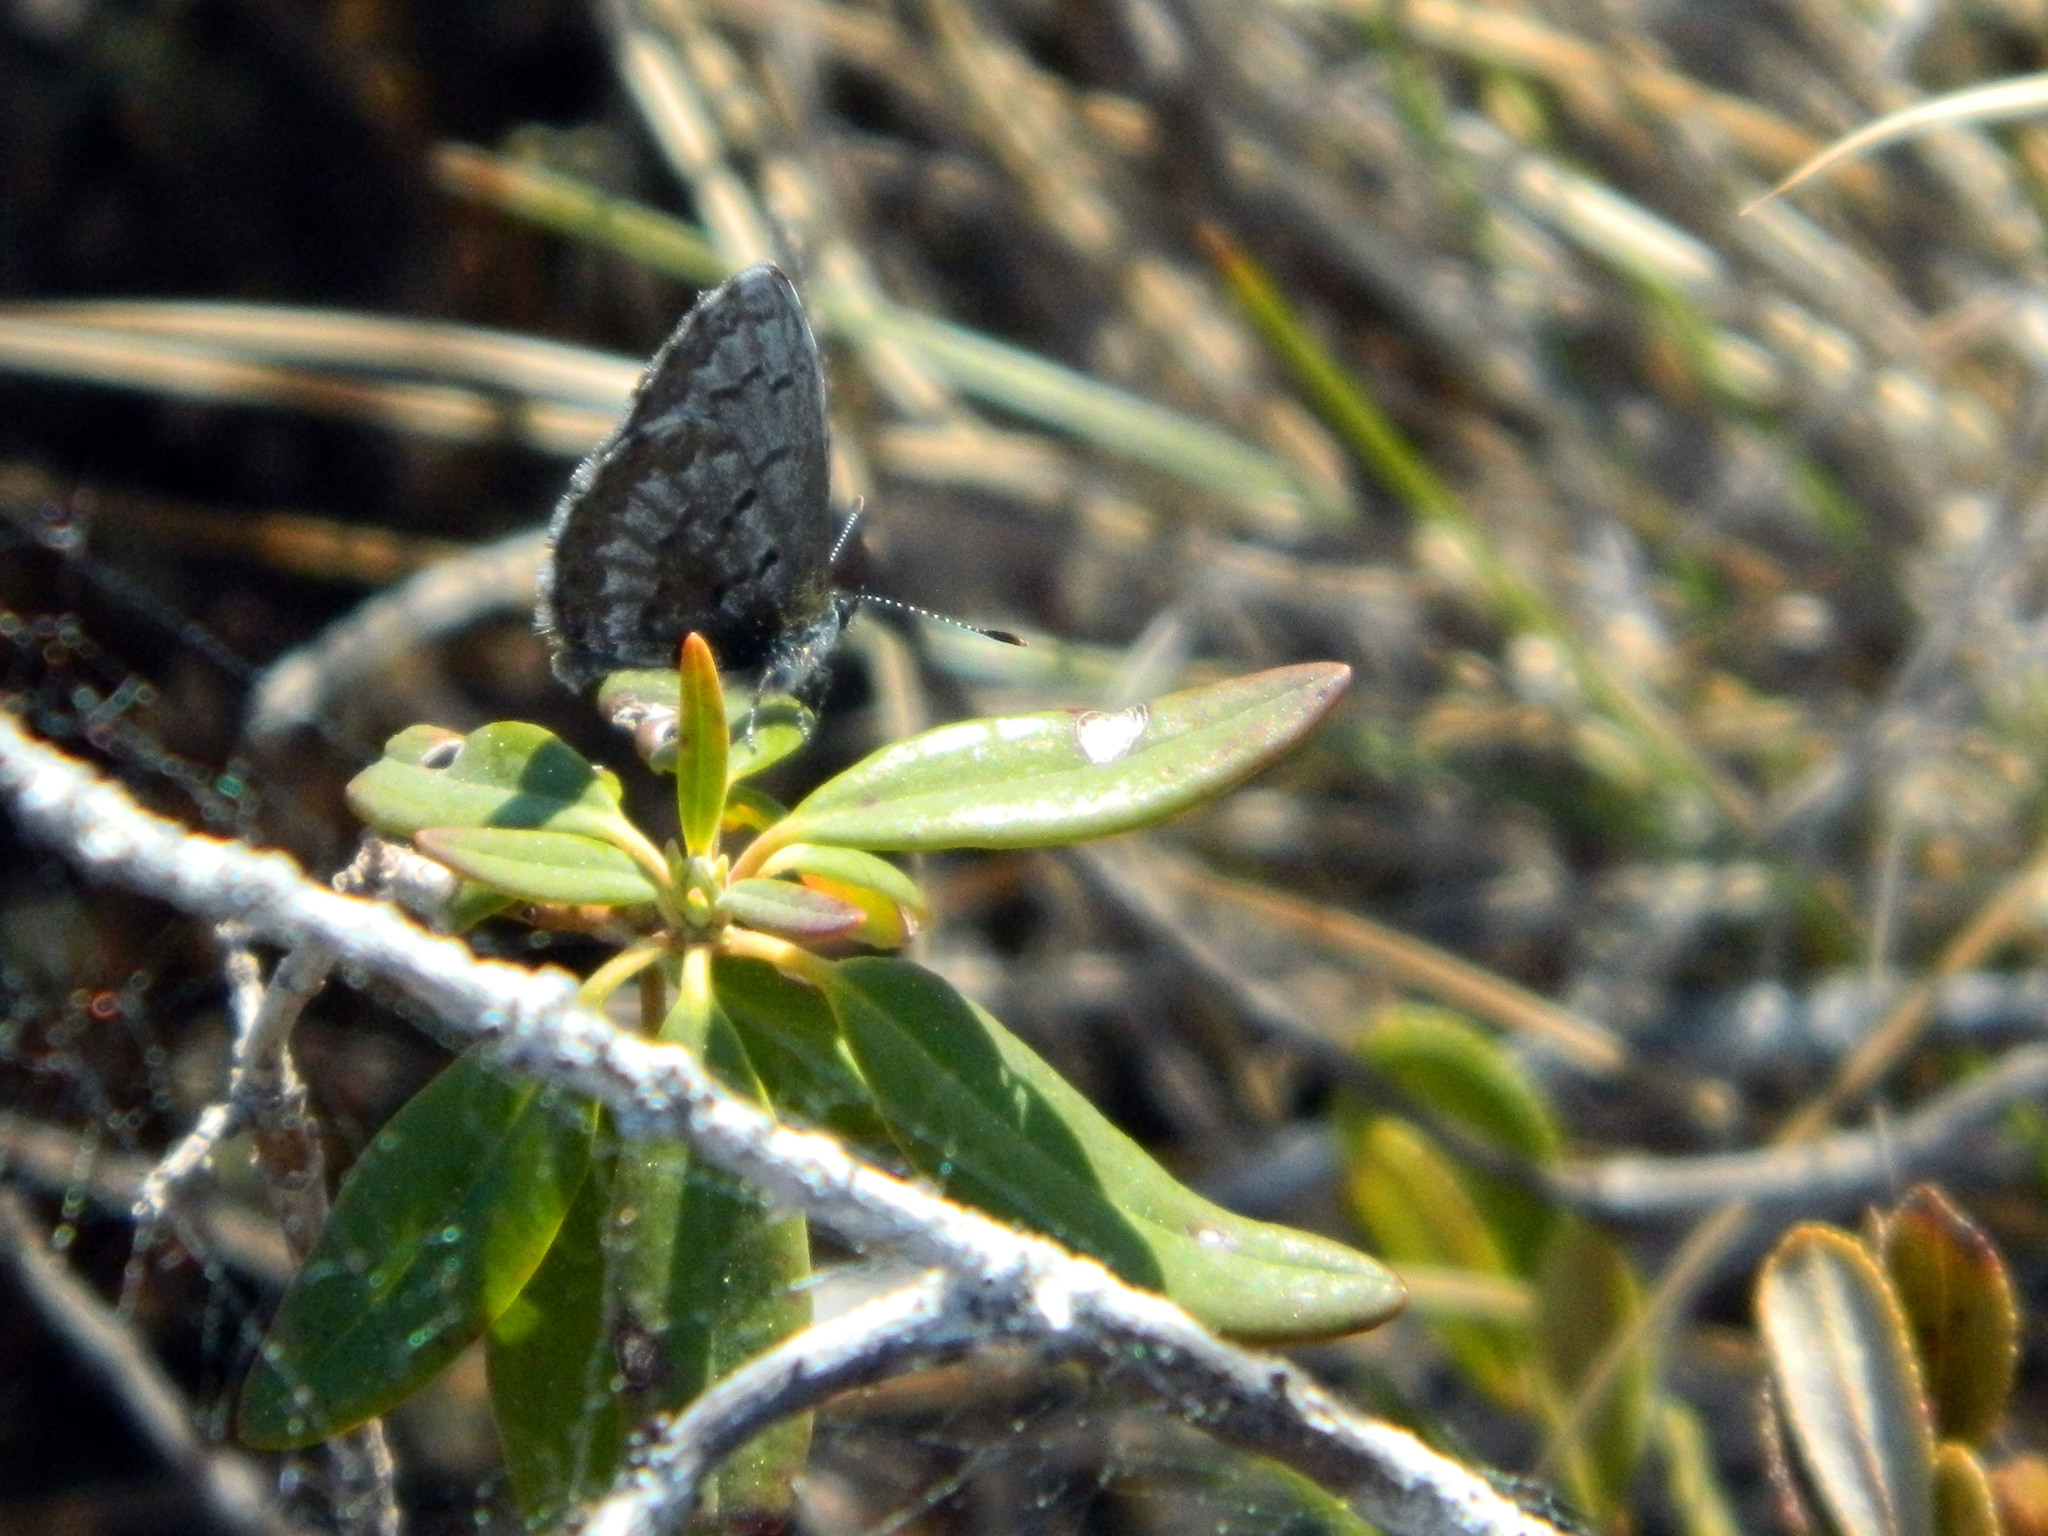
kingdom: Animalia
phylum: Arthropoda
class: Insecta
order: Lepidoptera
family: Lycaenidae
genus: Celastrina
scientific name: Celastrina lucia
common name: Lucia azure
